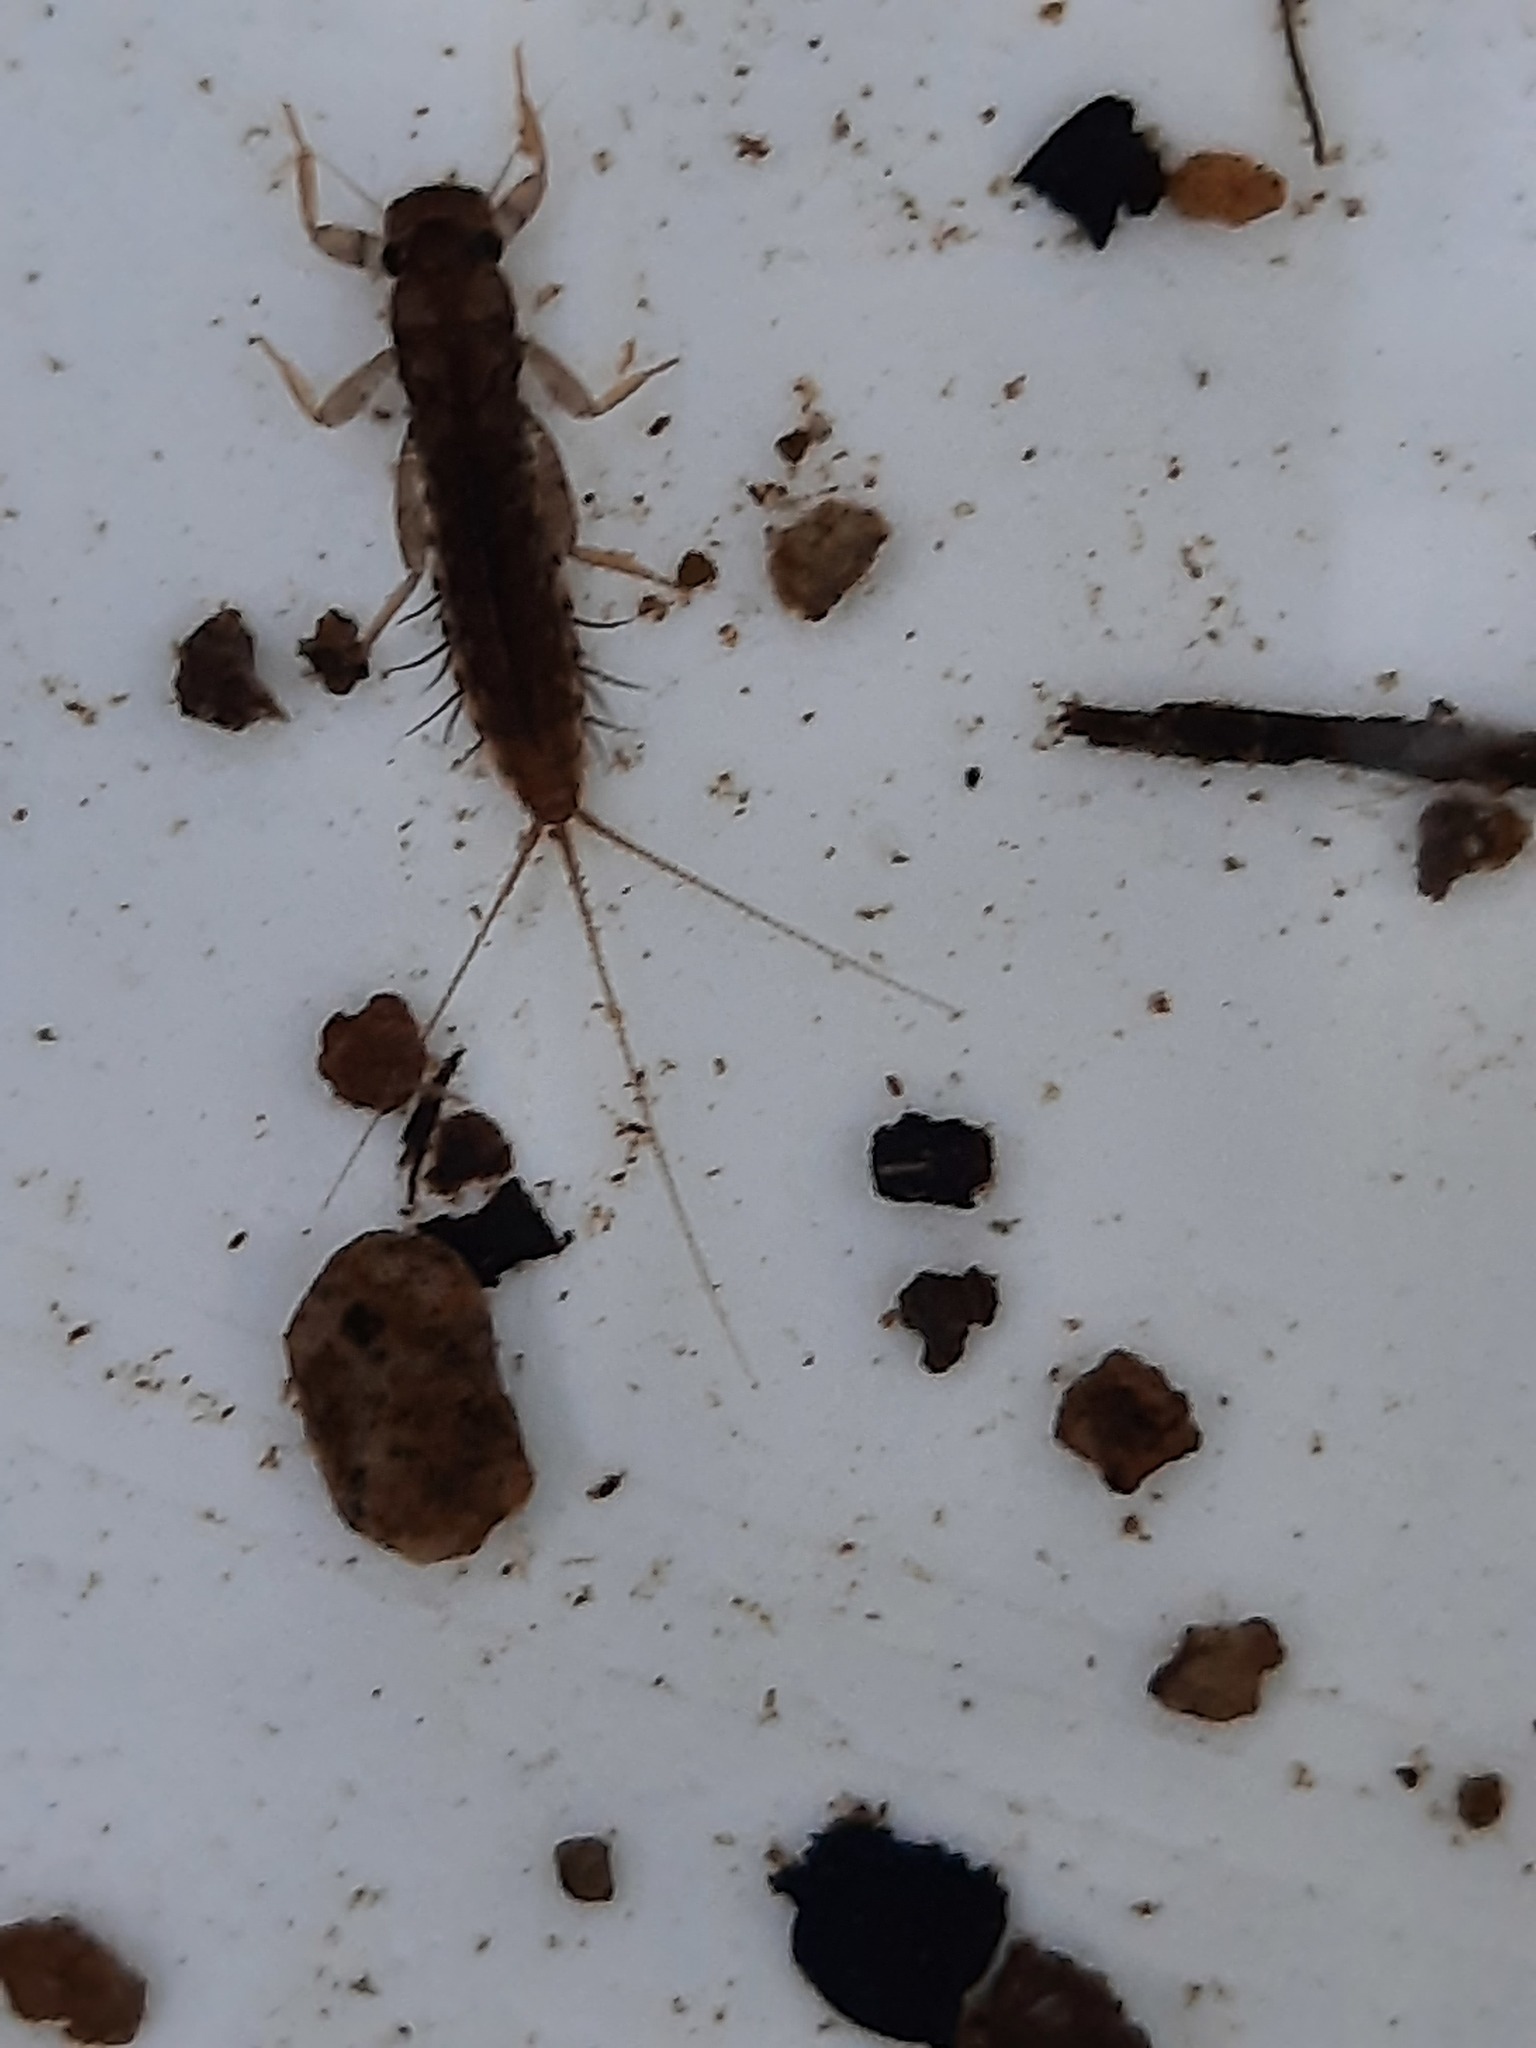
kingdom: Animalia
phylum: Arthropoda
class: Insecta
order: Ephemeroptera
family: Leptophlebiidae
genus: Neozephlebia
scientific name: Neozephlebia scita
